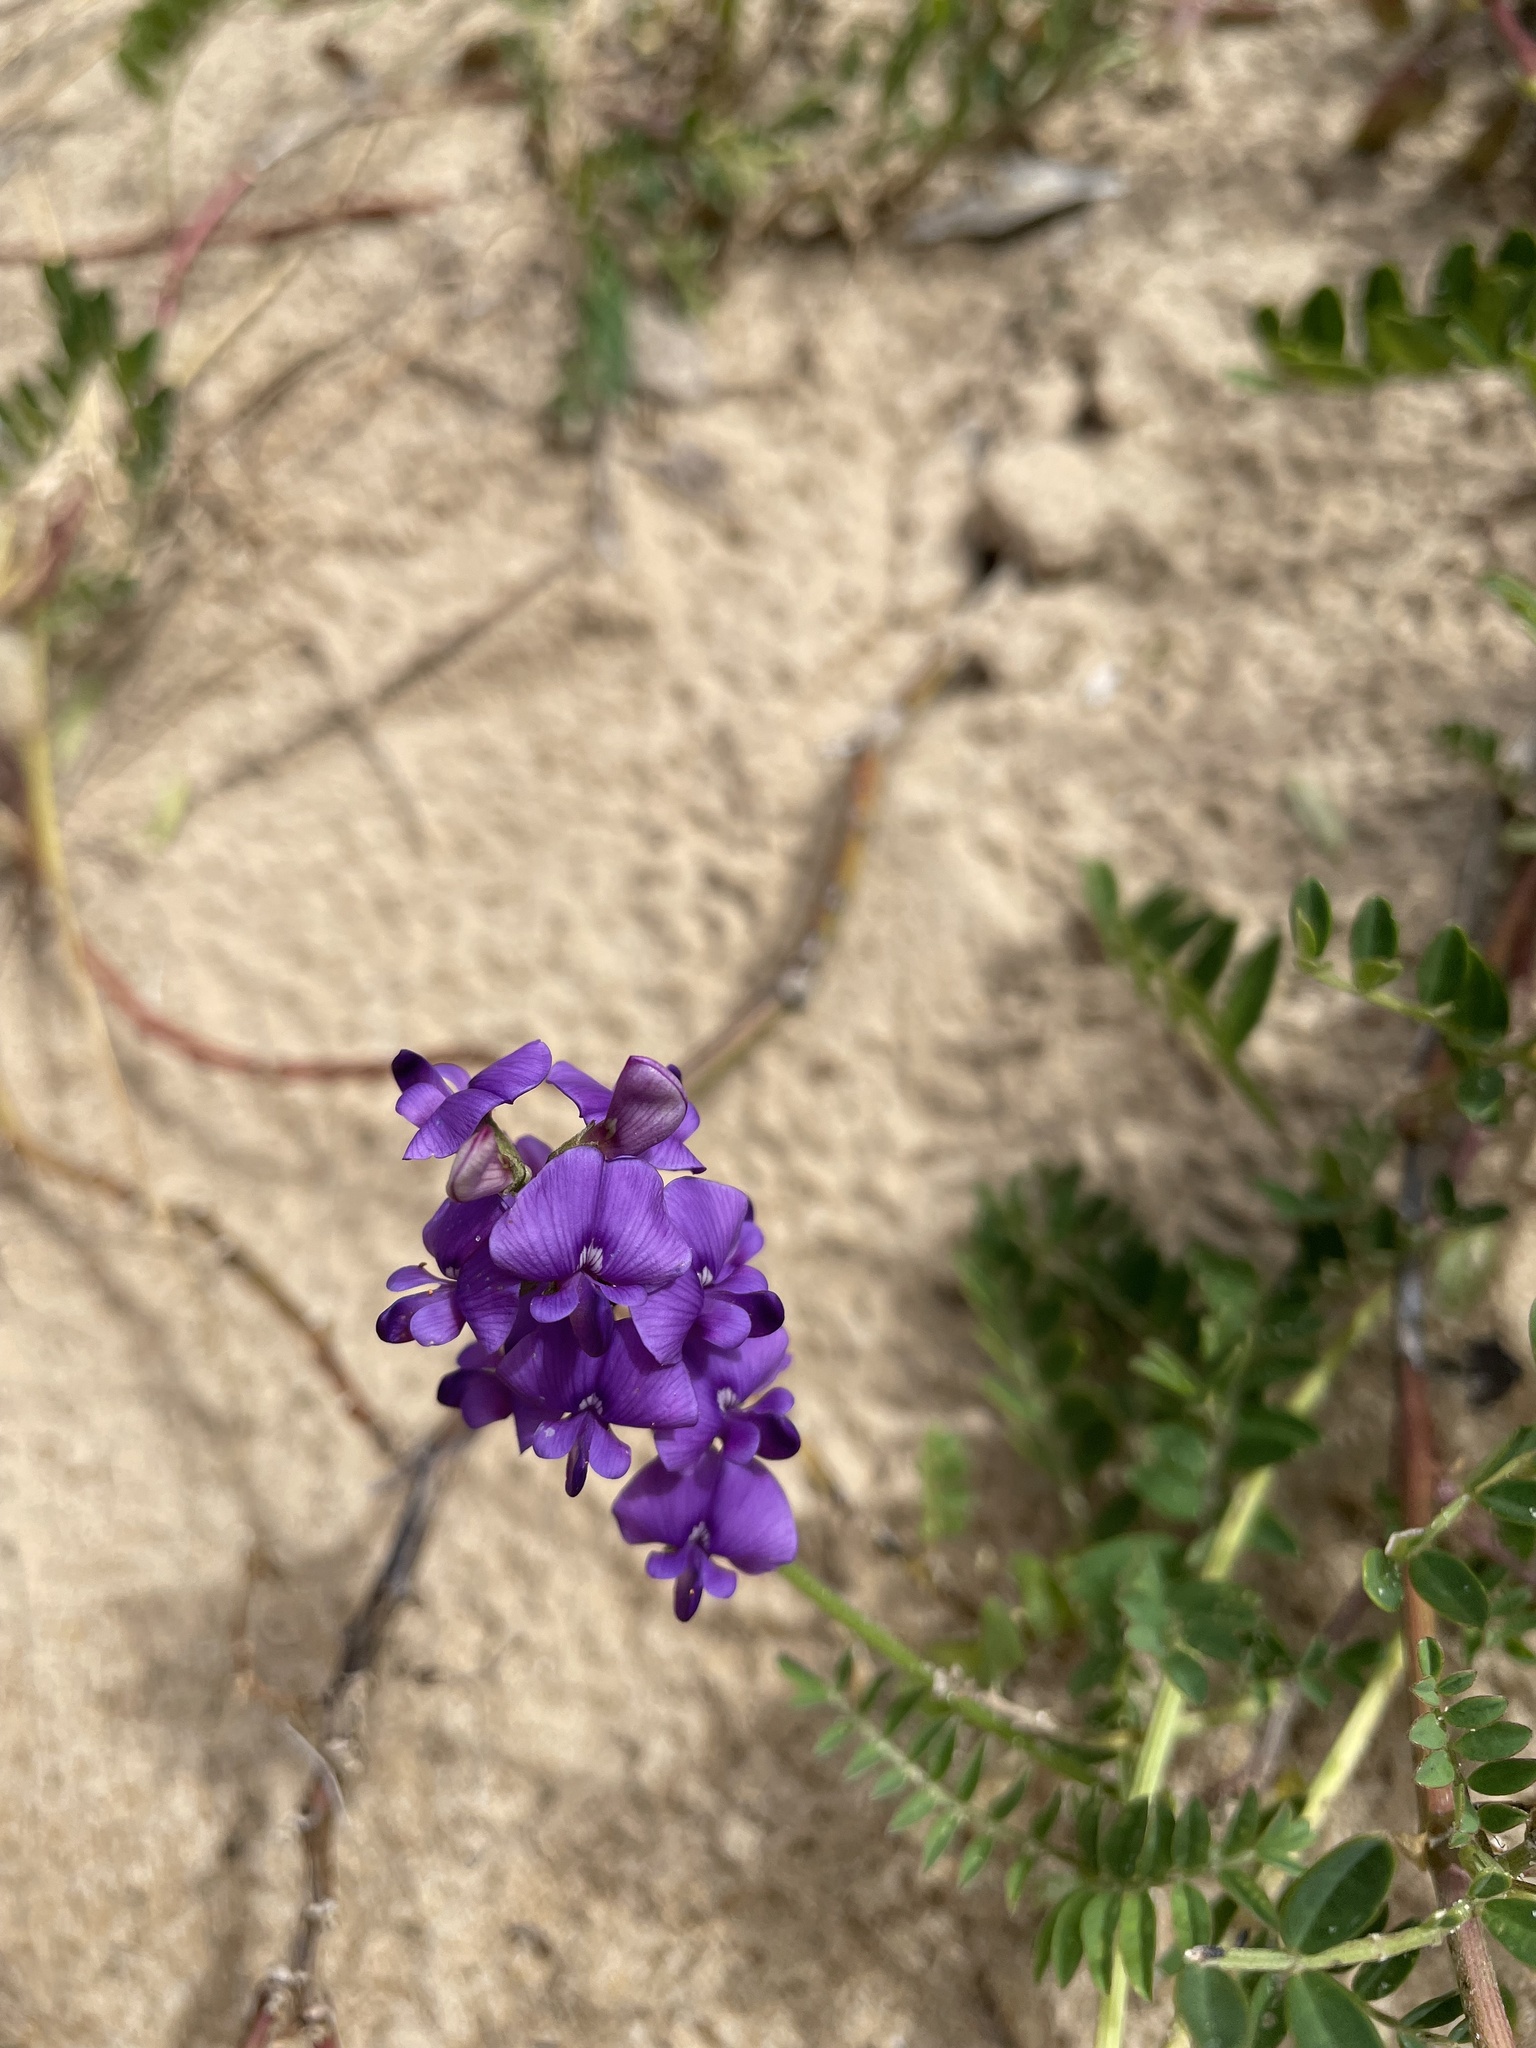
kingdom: Plantae
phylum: Tracheophyta
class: Magnoliopsida
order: Fabales
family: Fabaceae
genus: Swainsona
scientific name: Swainsona lessertiifolia
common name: Bog-pea
